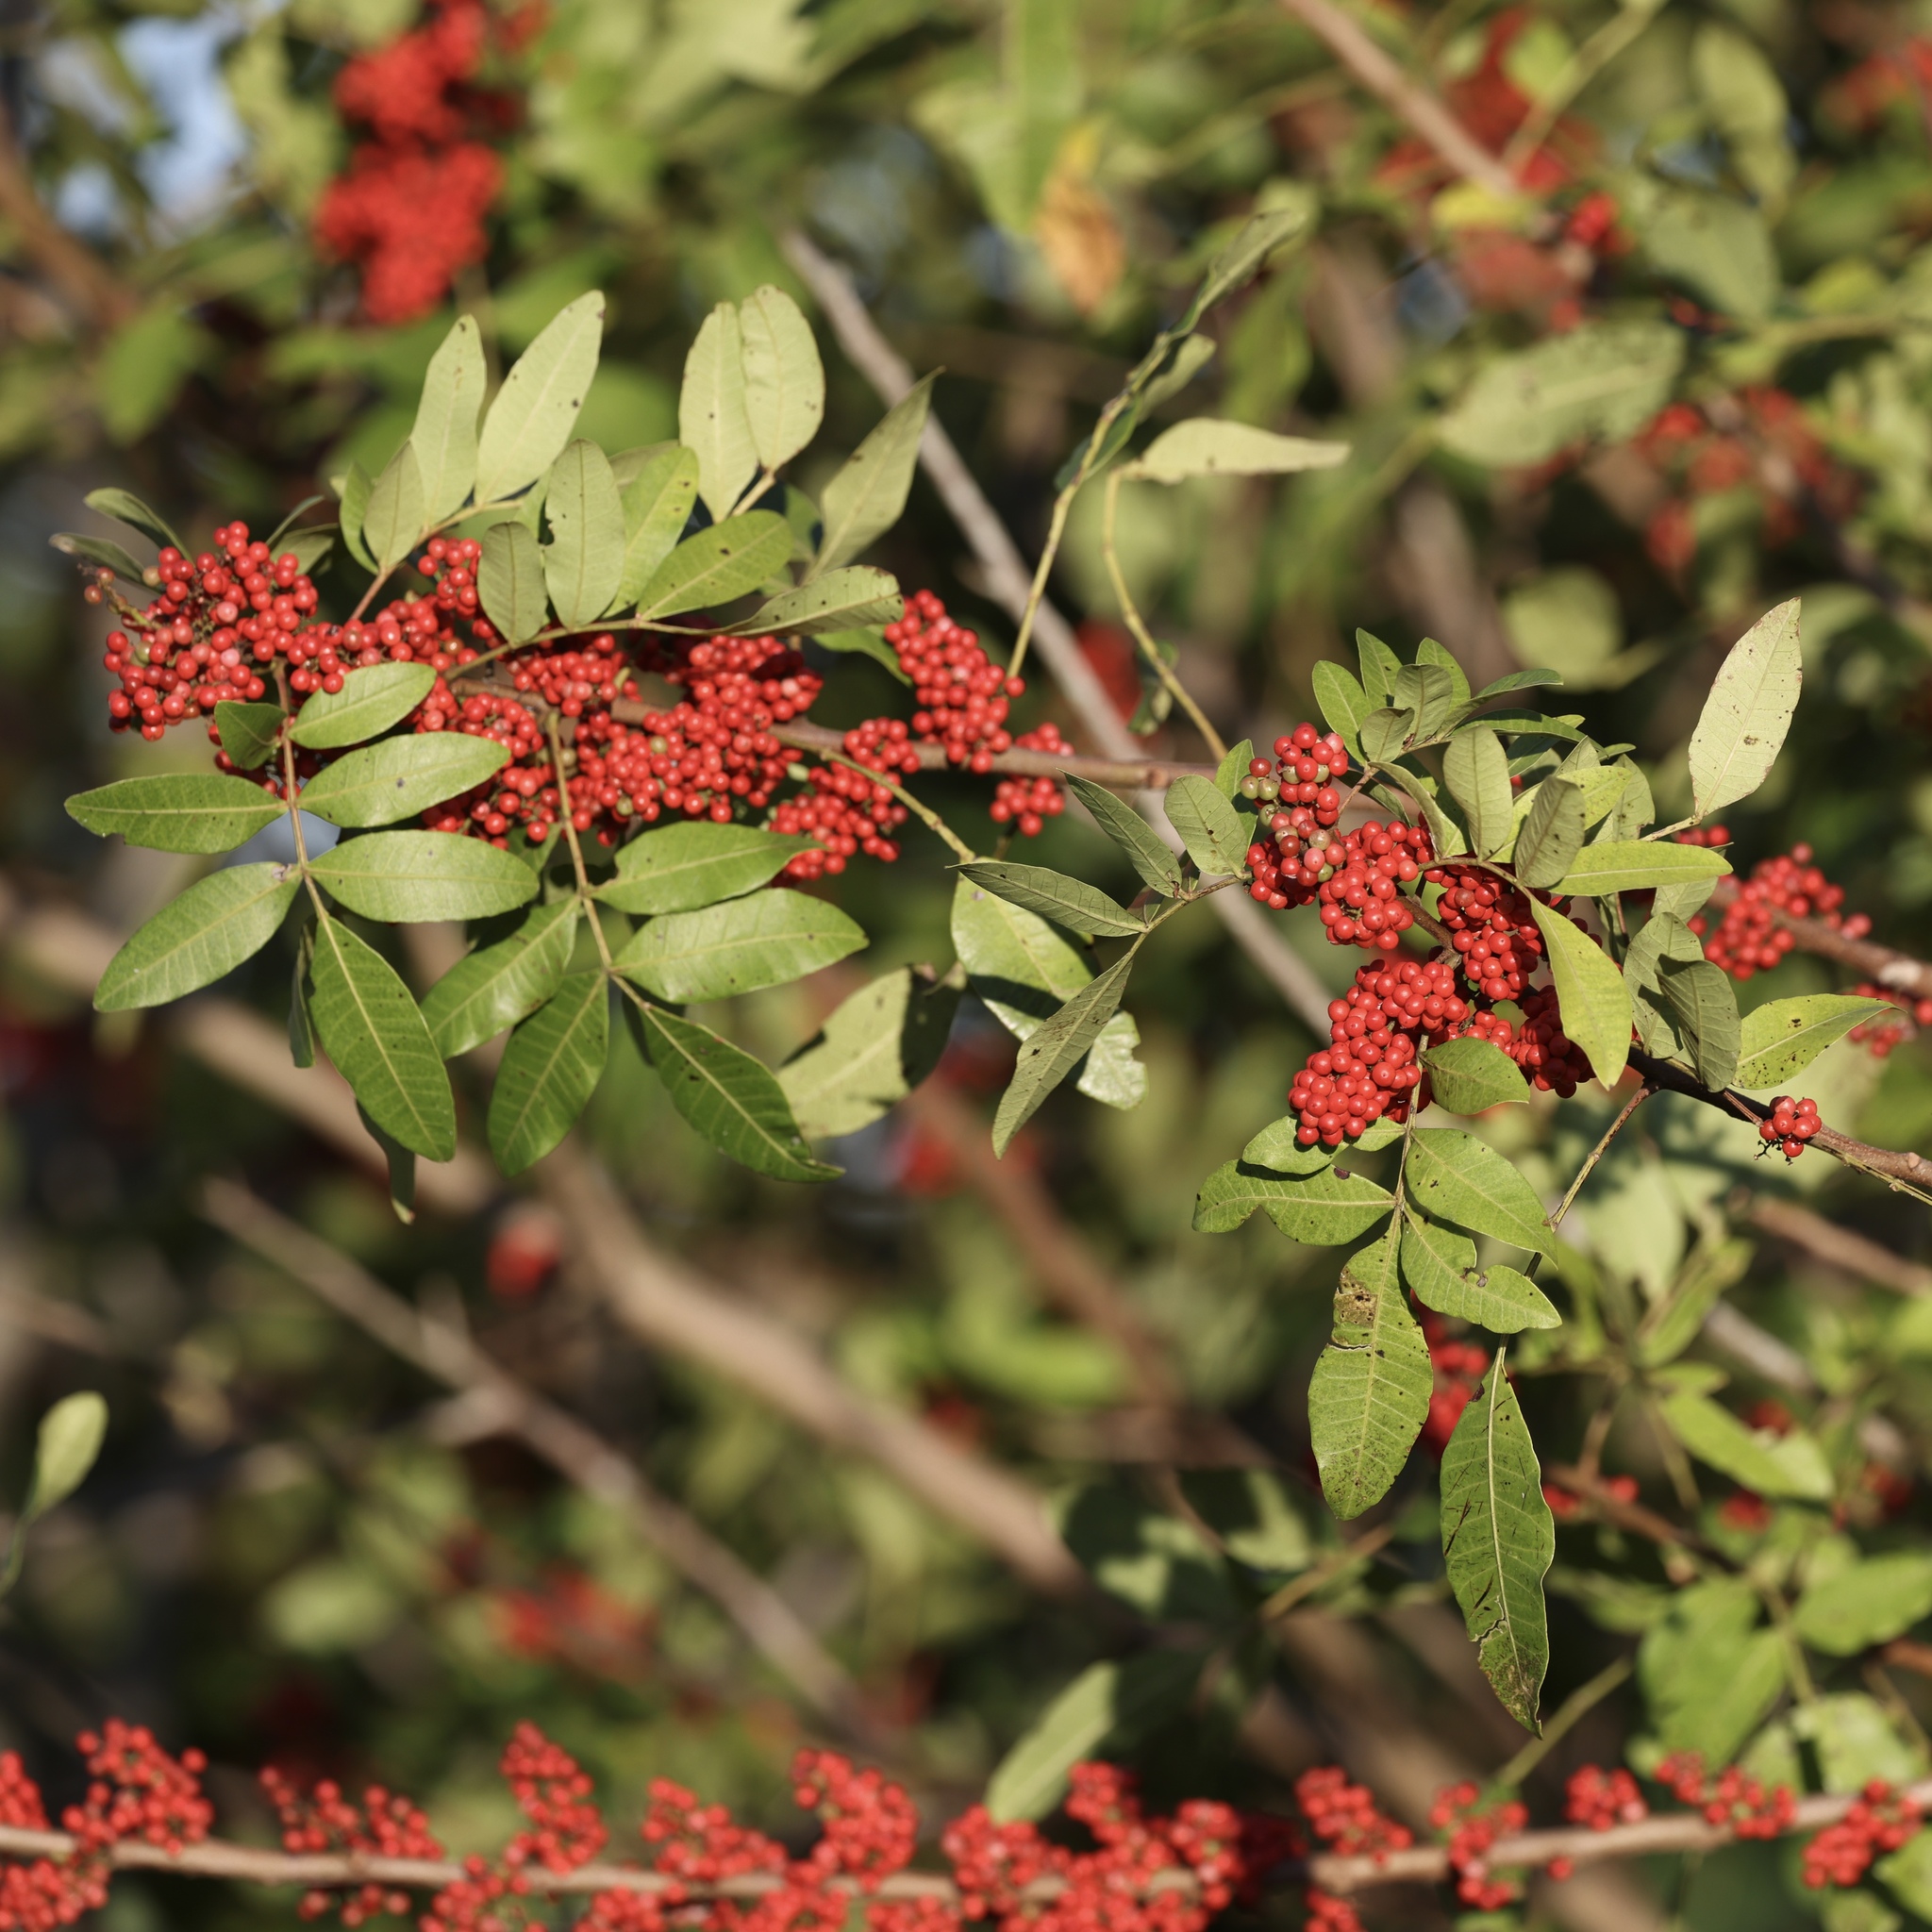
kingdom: Plantae
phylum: Tracheophyta
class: Magnoliopsida
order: Sapindales
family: Anacardiaceae
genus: Schinus
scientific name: Schinus terebinthifolia
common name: Brazilian peppertree
